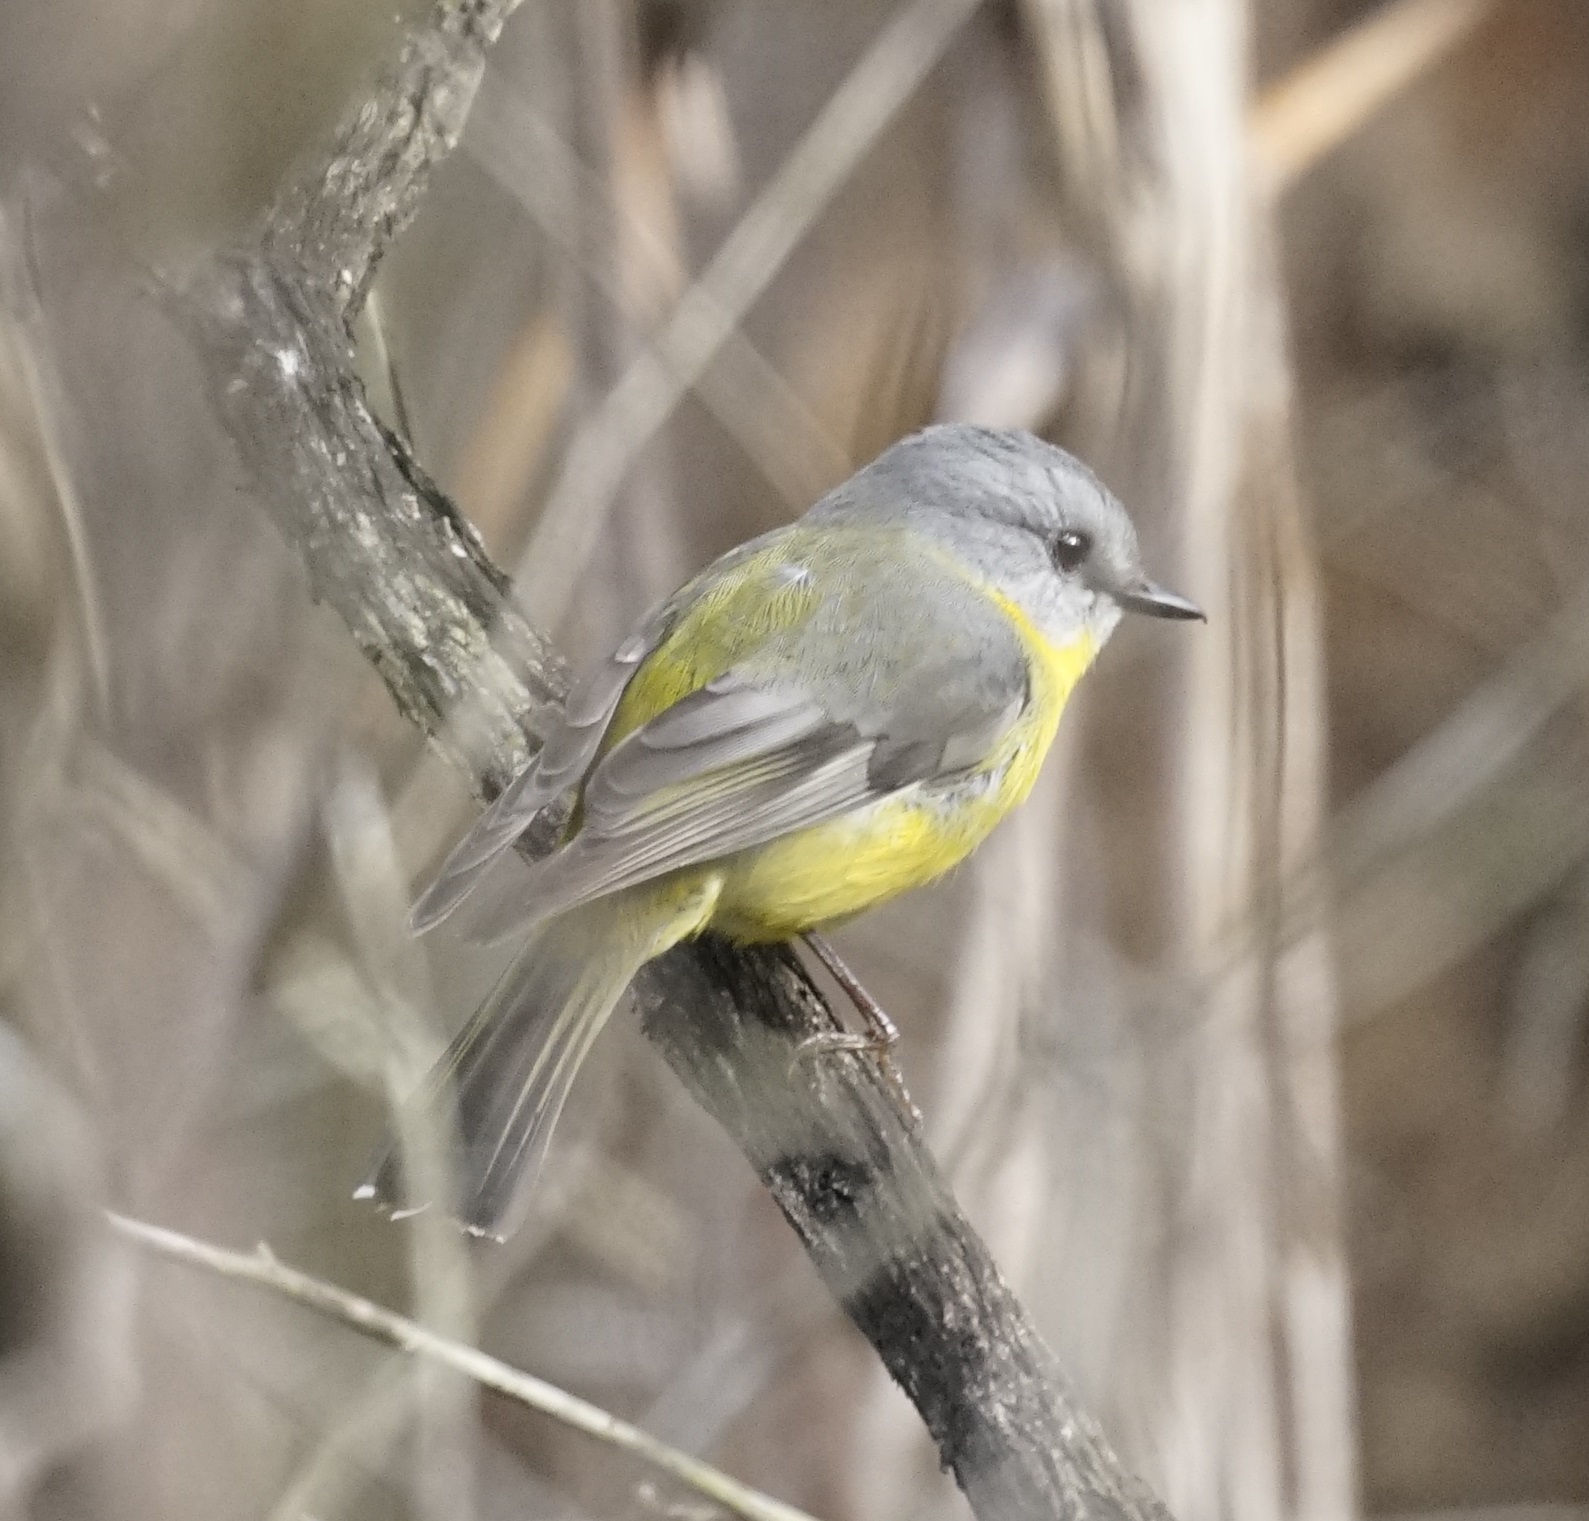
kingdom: Animalia
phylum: Chordata
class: Aves
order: Passeriformes
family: Petroicidae
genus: Eopsaltria
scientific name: Eopsaltria australis
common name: Eastern yellow robin
